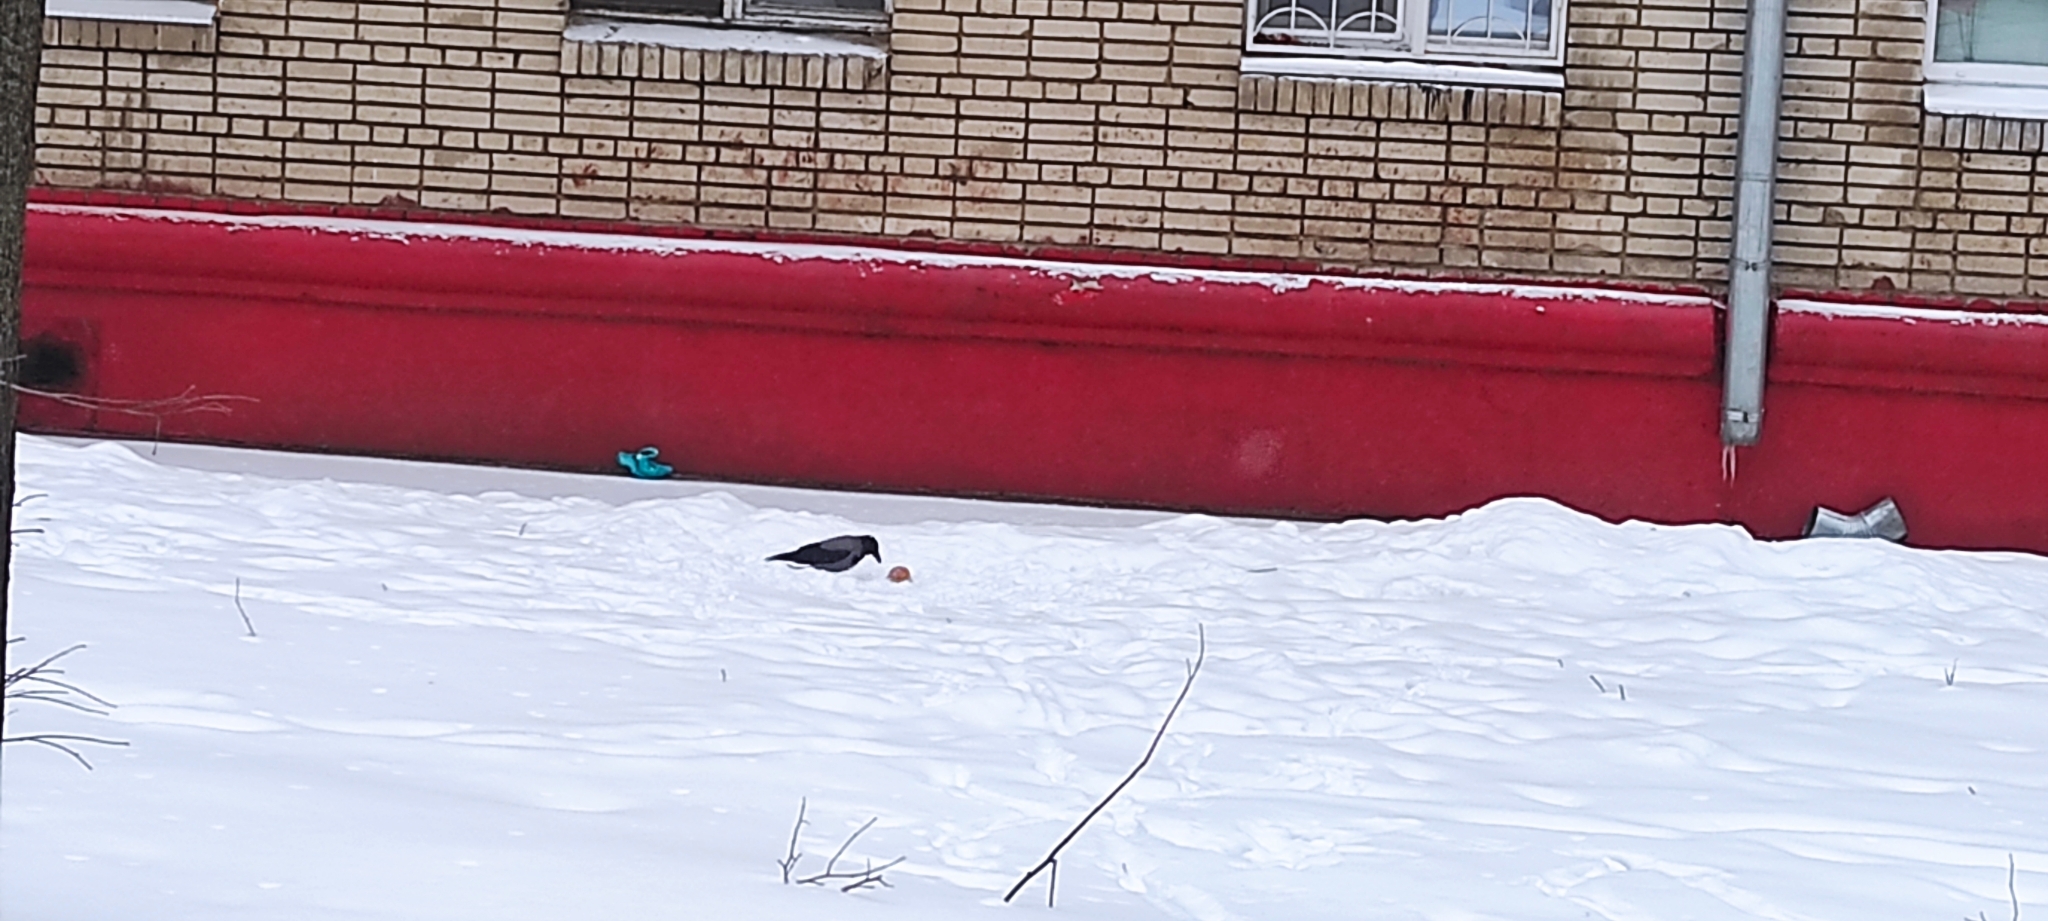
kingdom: Animalia
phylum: Chordata
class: Aves
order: Passeriformes
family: Corvidae
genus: Corvus
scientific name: Corvus cornix
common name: Hooded crow
